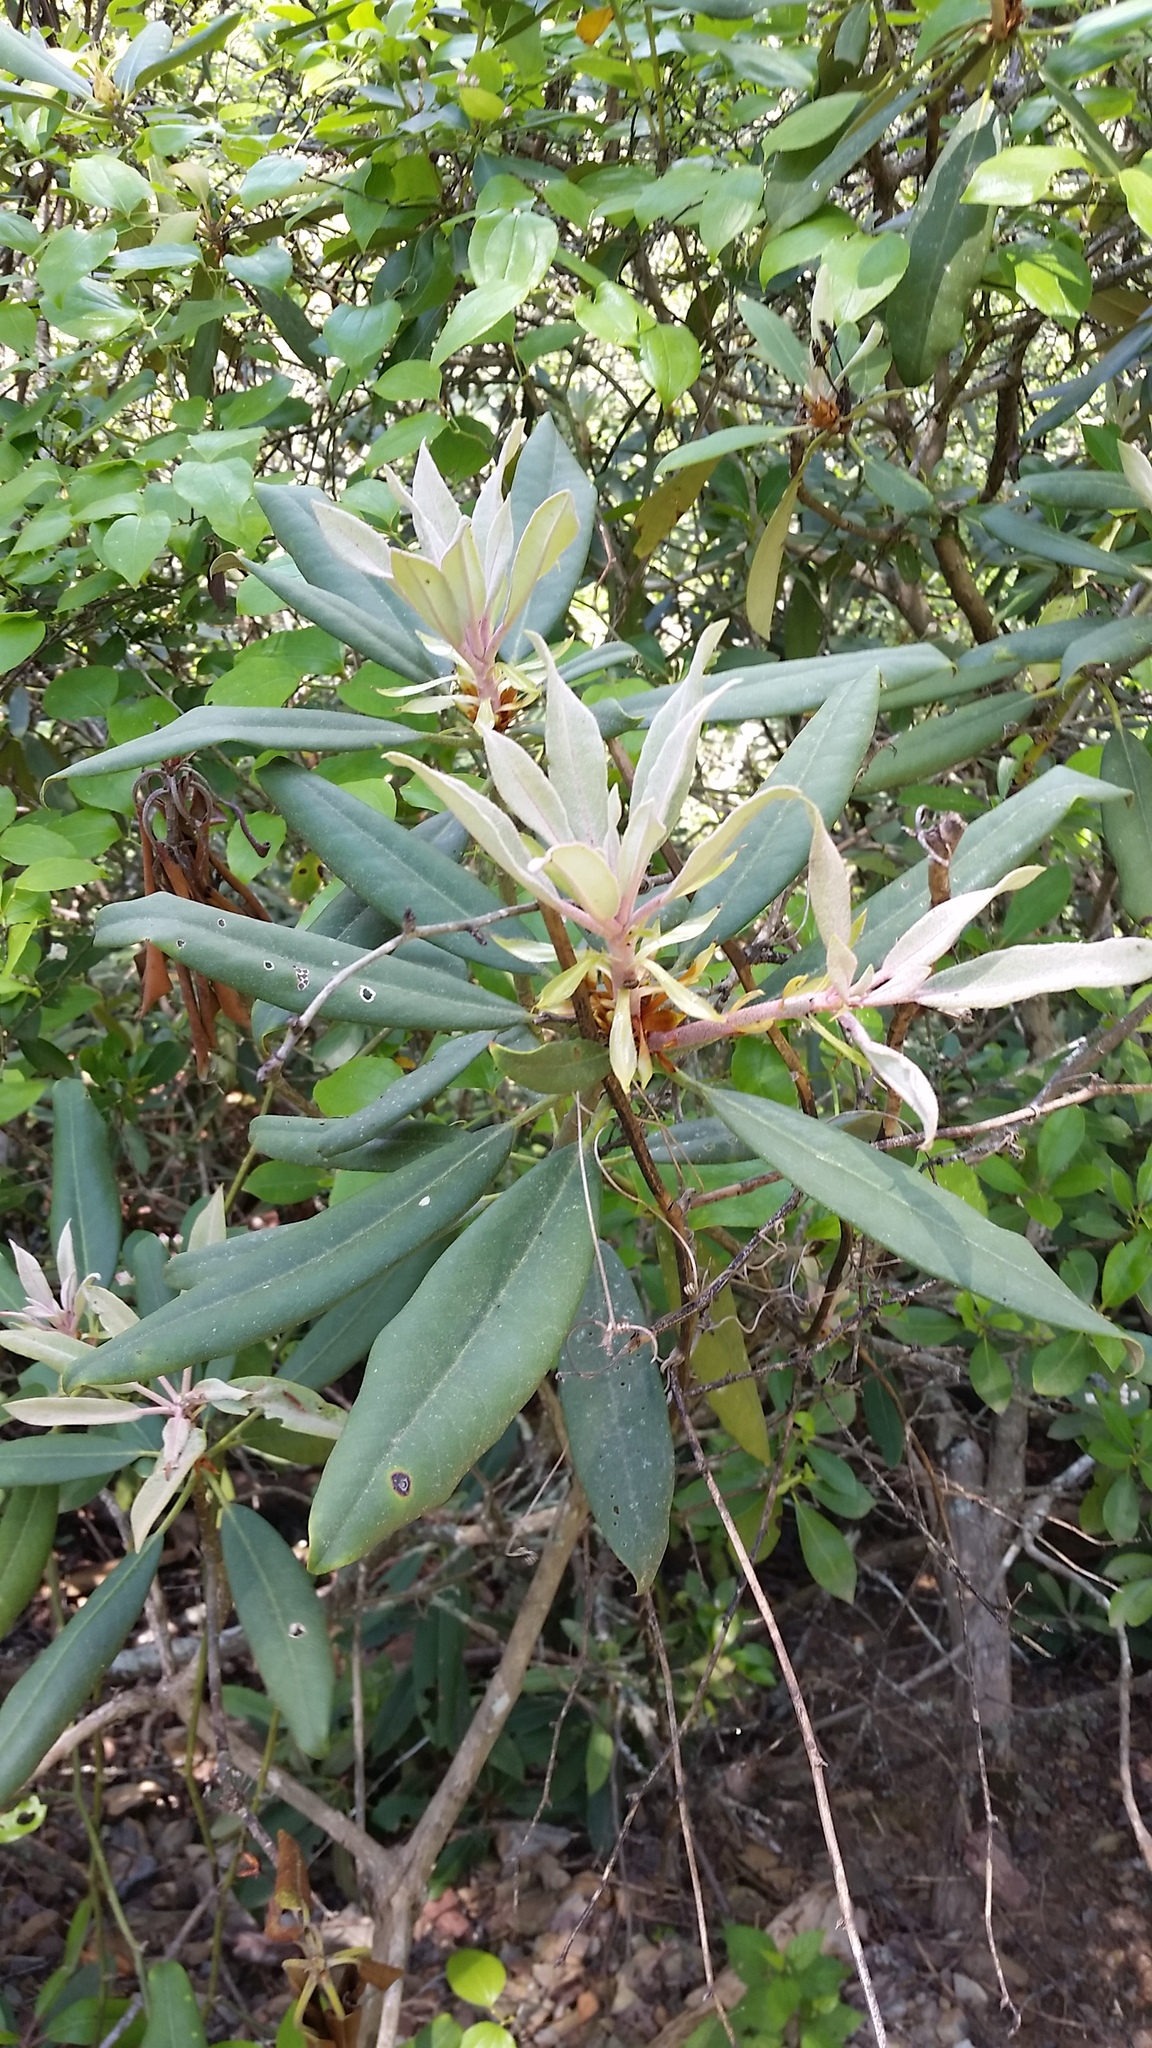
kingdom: Plantae
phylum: Tracheophyta
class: Magnoliopsida
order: Ericales
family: Ericaceae
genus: Rhododendron
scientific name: Rhododendron maximum
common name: Great rhododendron
